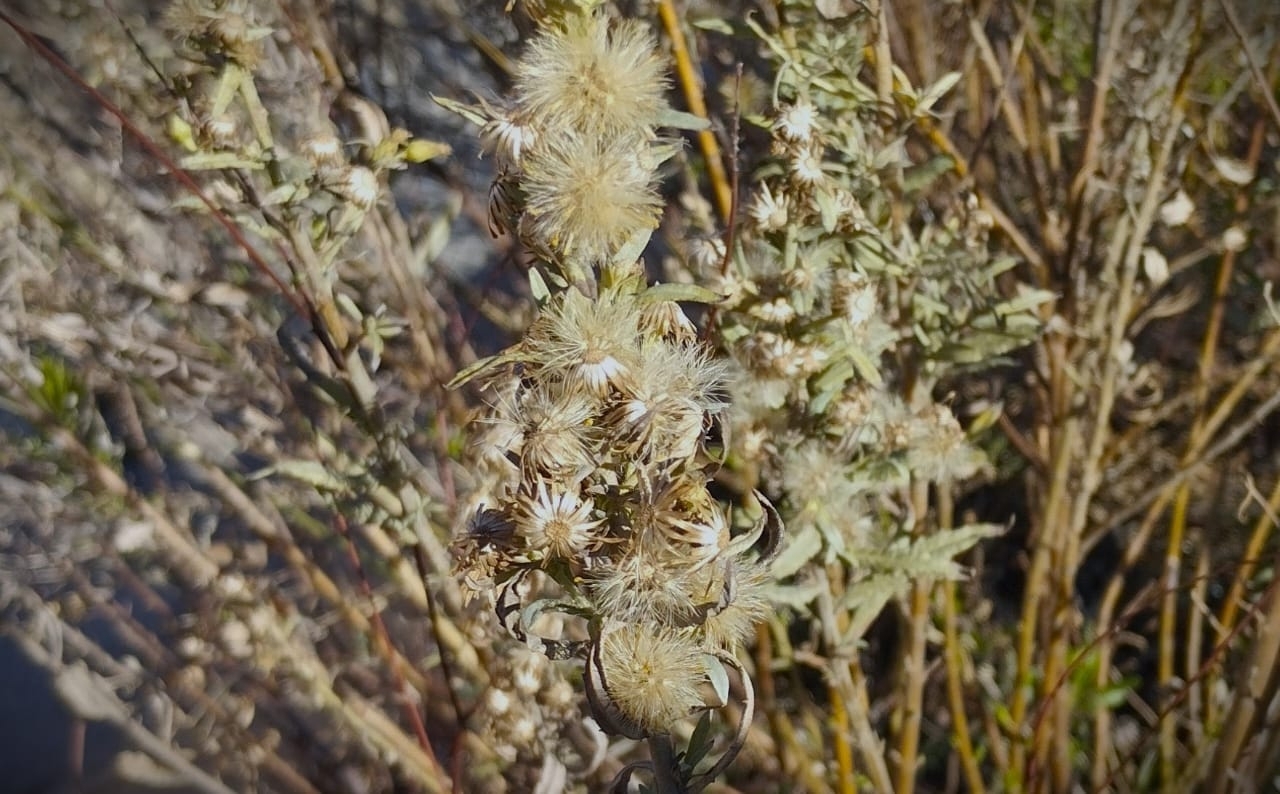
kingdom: Plantae
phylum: Tracheophyta
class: Magnoliopsida
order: Asterales
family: Asteraceae
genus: Dittrichia
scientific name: Dittrichia viscosa
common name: Woody fleabane
